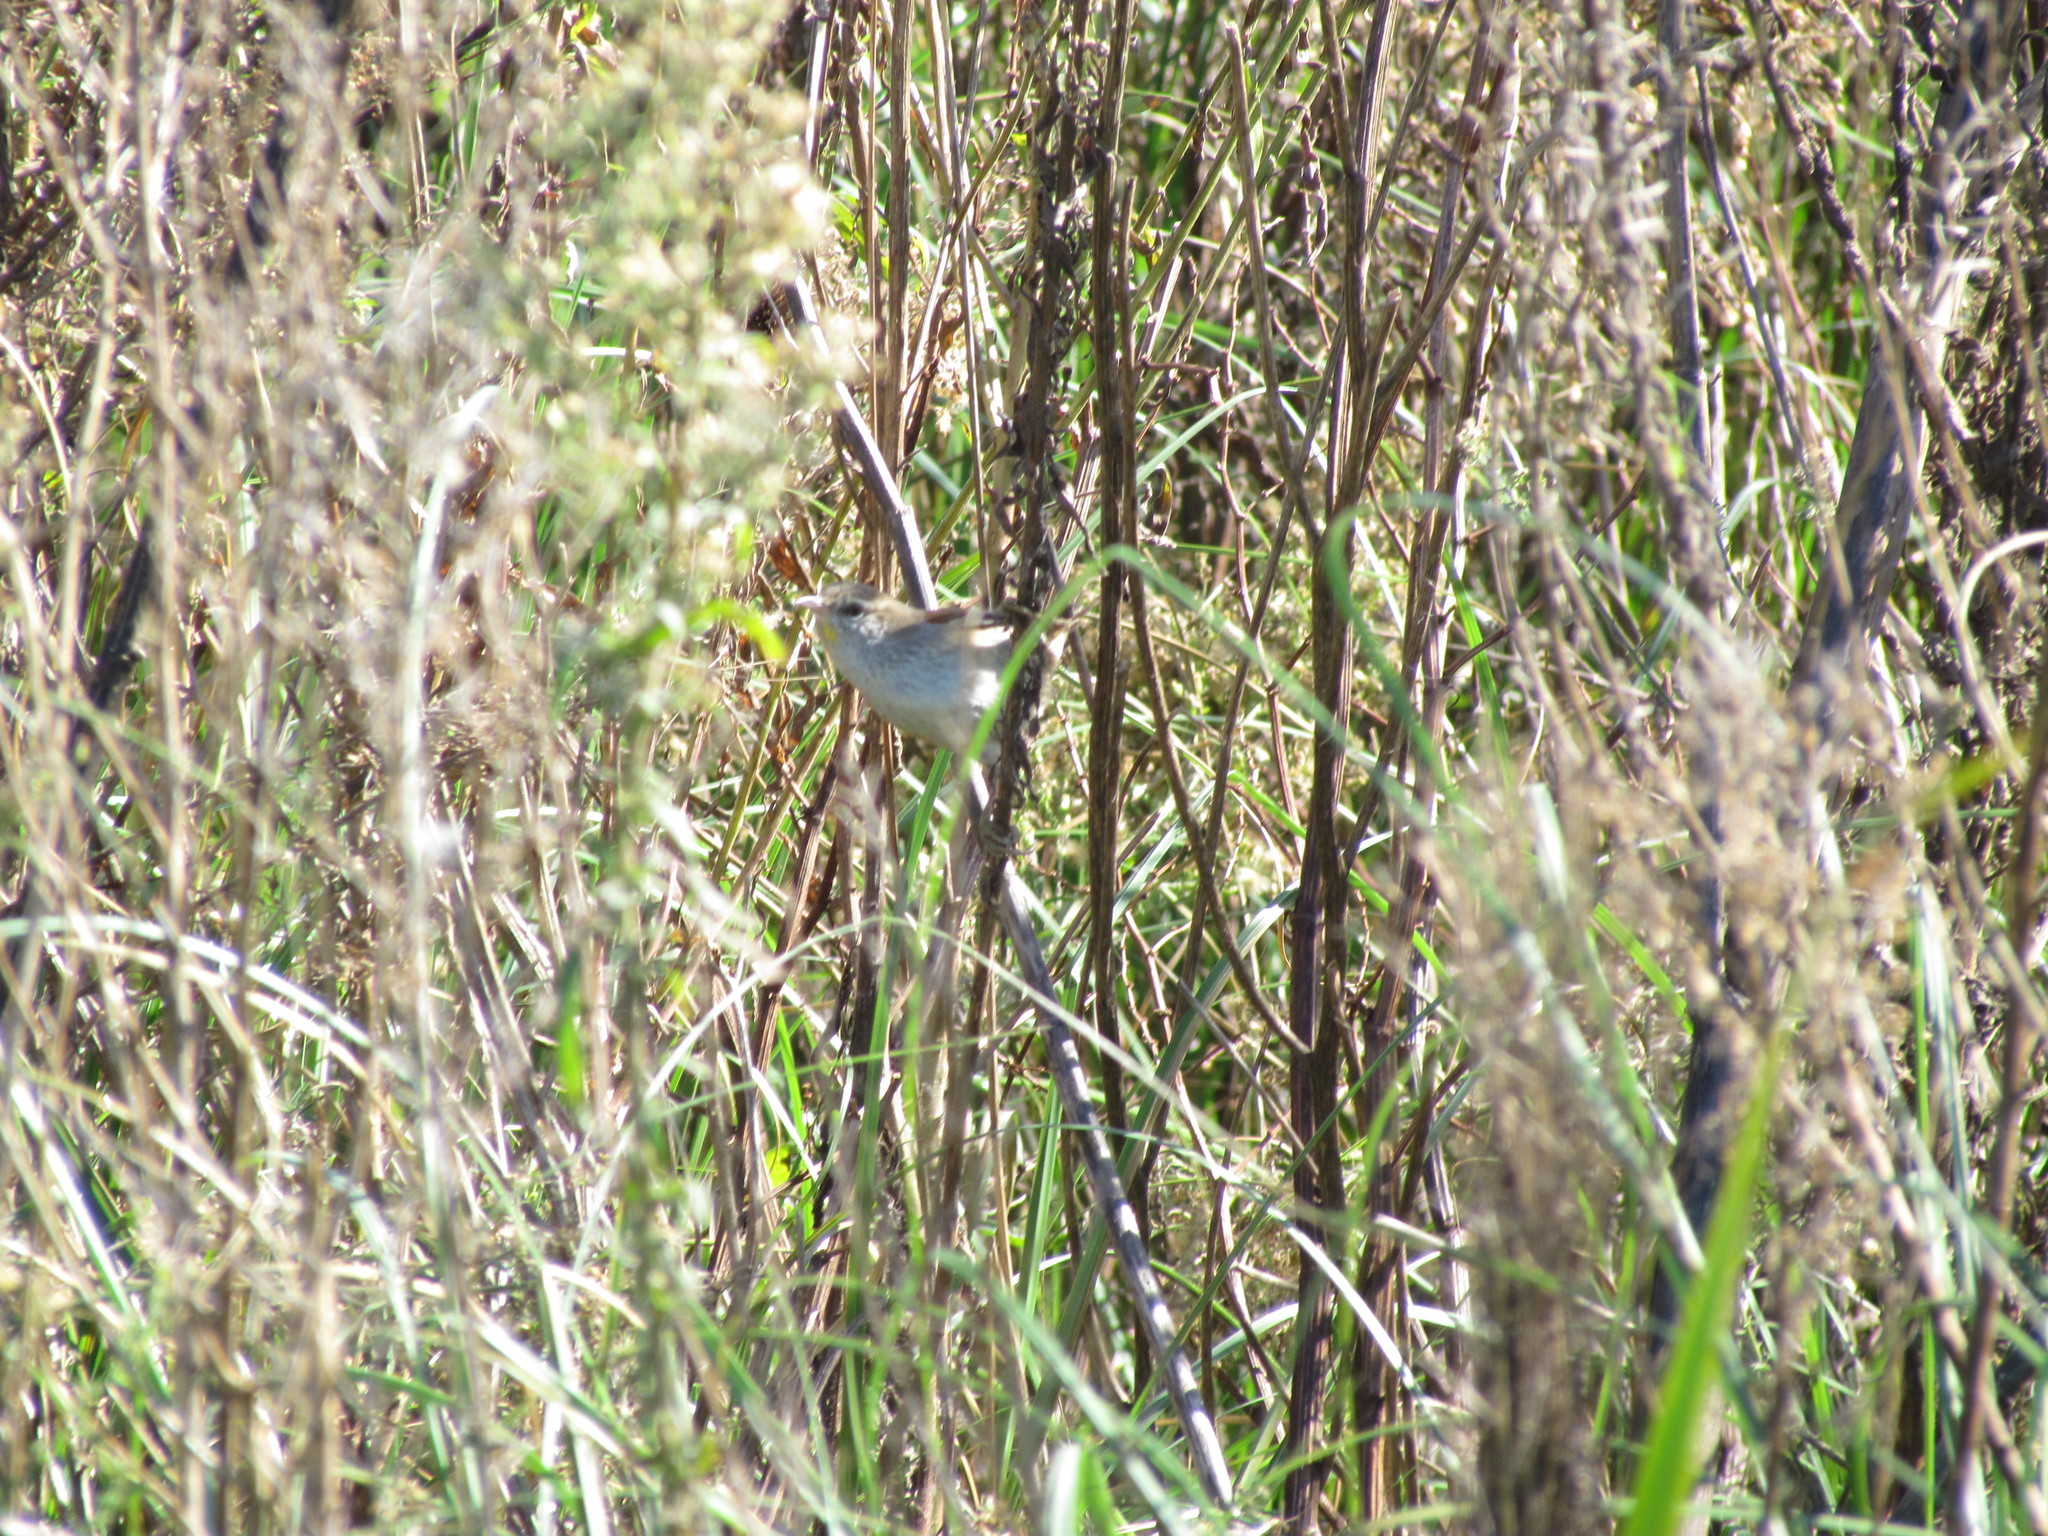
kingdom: Animalia
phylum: Chordata
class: Aves
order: Passeriformes
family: Furnariidae
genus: Cranioleuca
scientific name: Cranioleuca sulphurifera
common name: Sulphur-bearded spinetail
